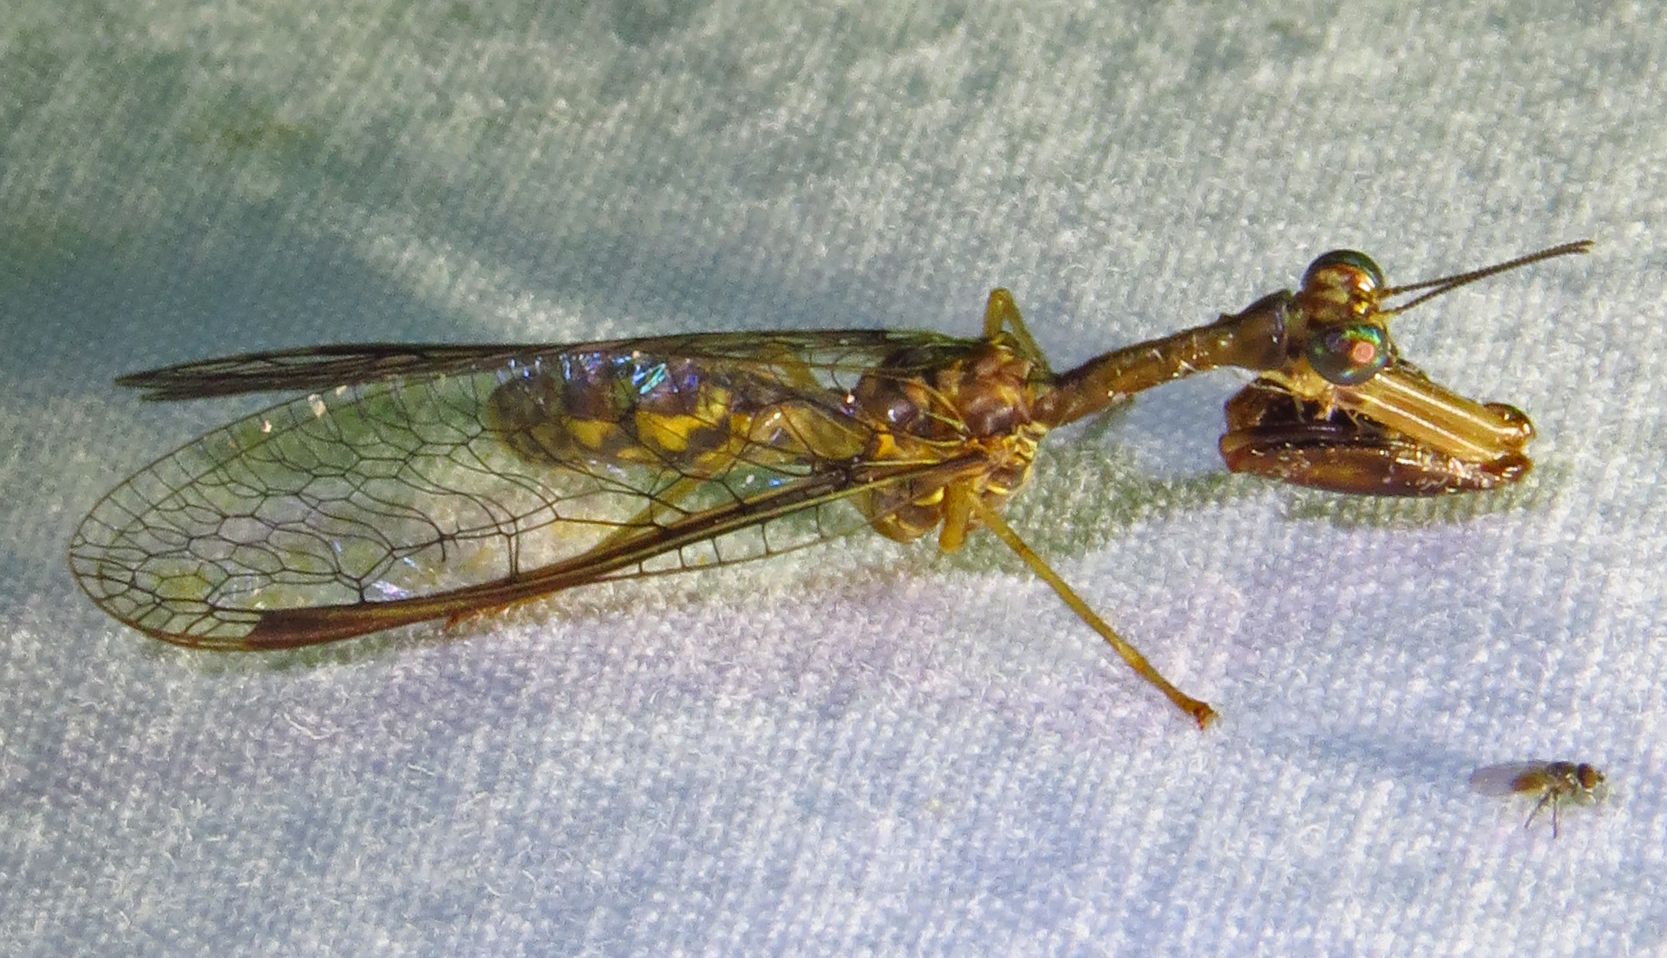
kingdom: Animalia
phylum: Arthropoda
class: Insecta
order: Neuroptera
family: Mantispidae
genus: Dicromantispa
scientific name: Dicromantispa sayi
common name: Say's mantidfly
